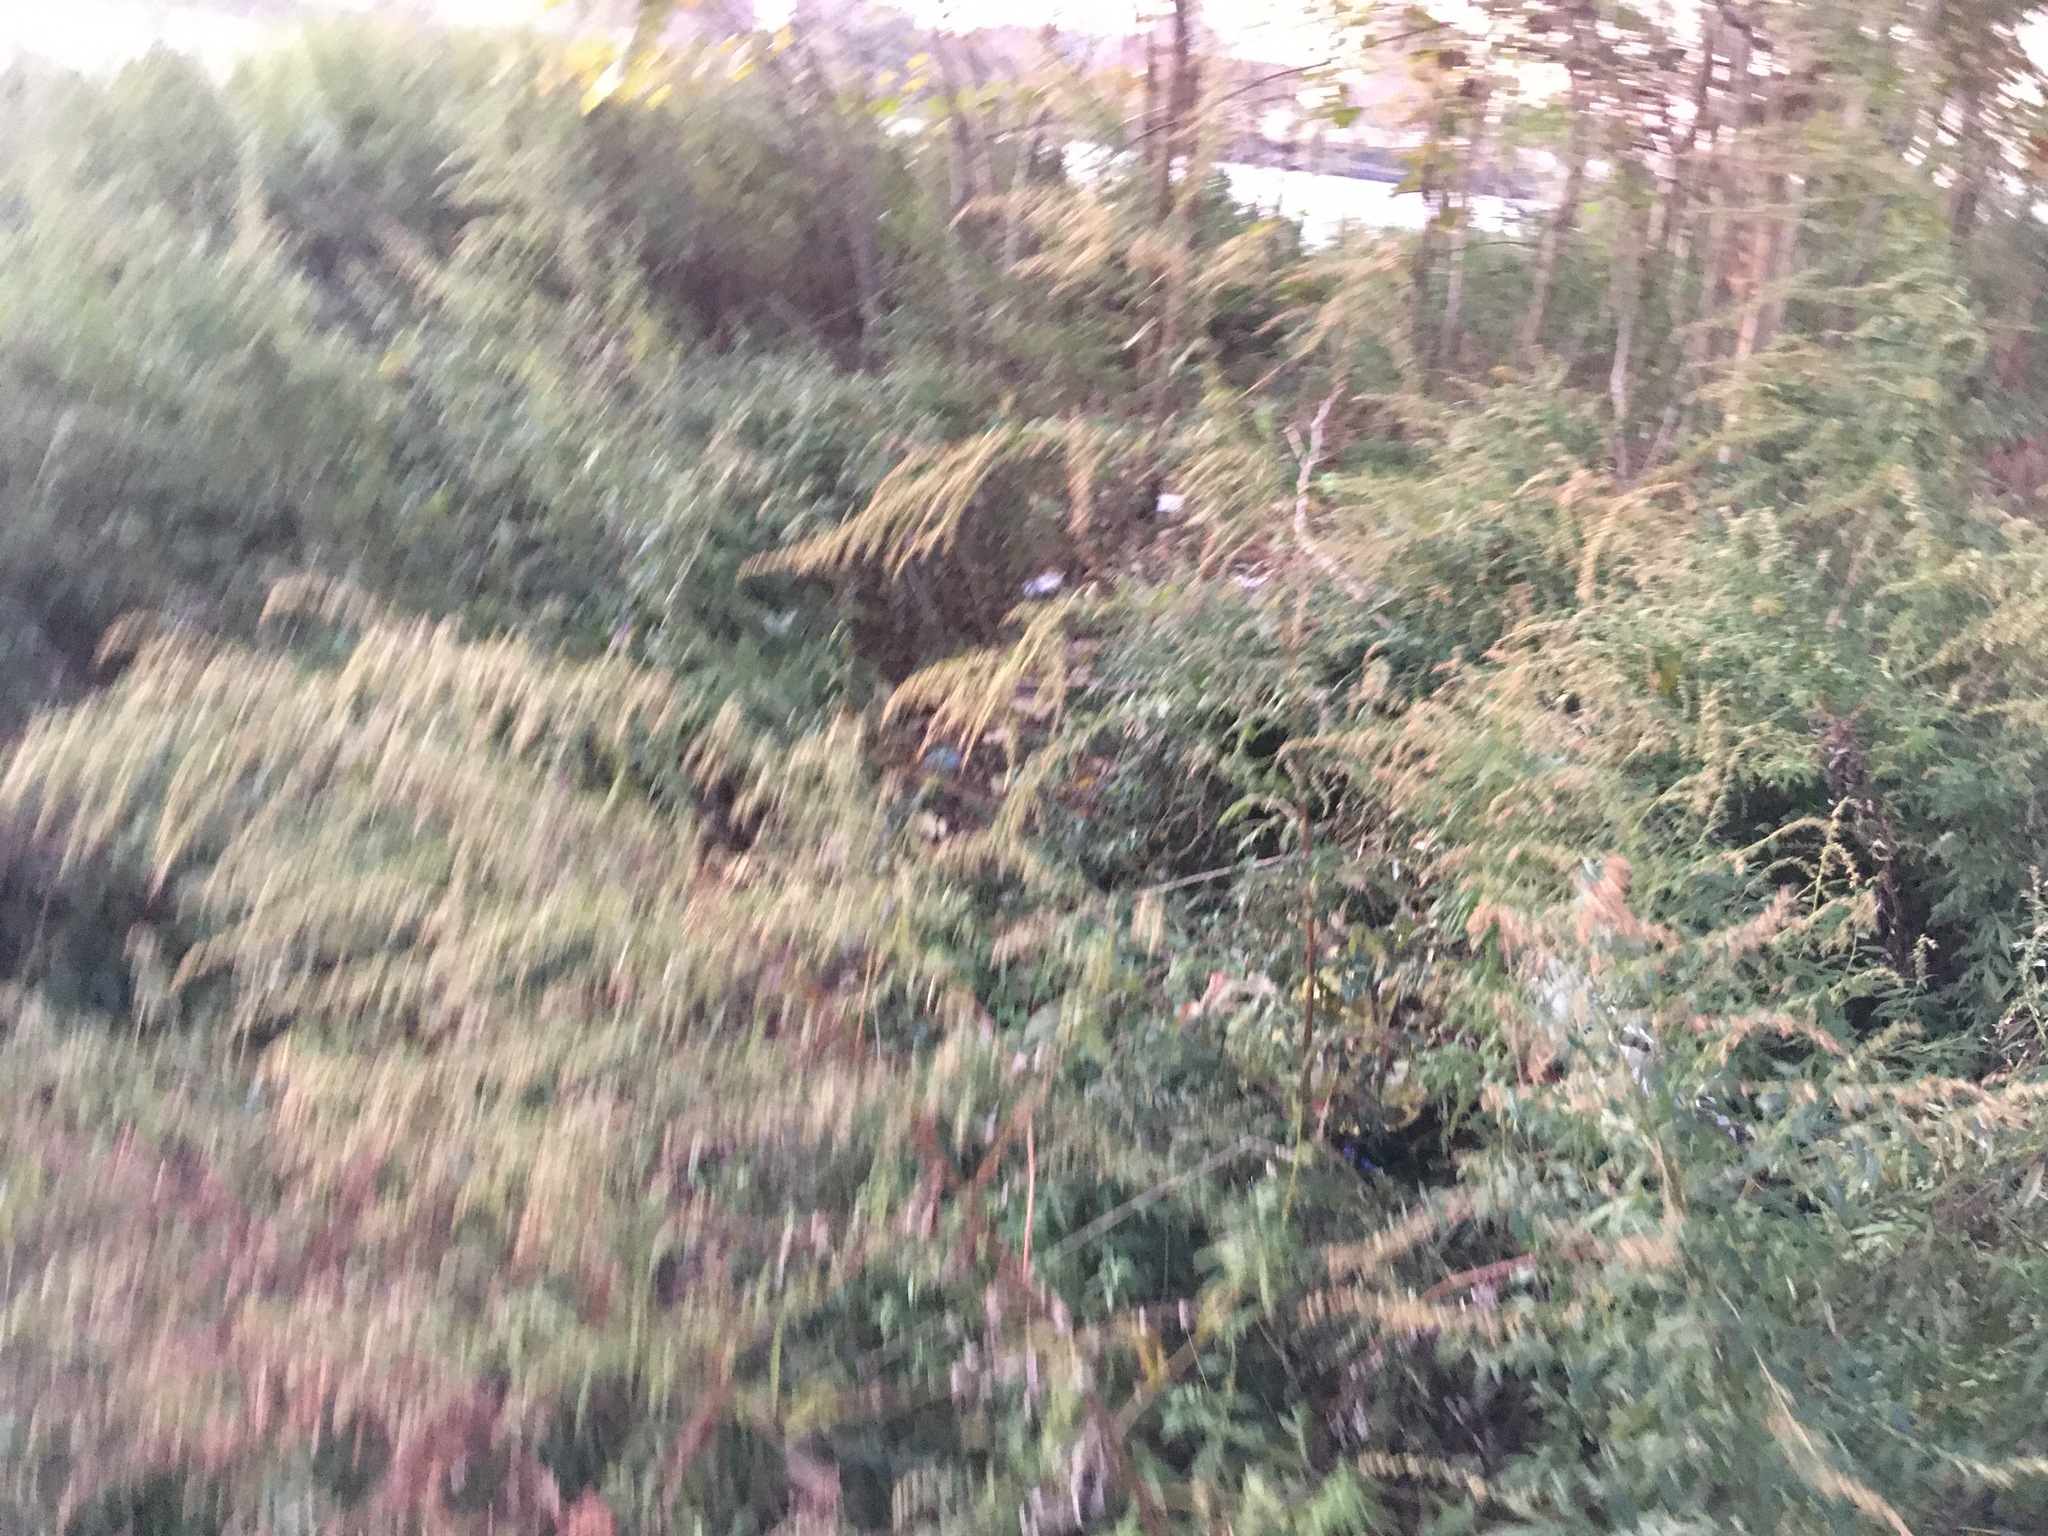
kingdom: Plantae
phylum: Tracheophyta
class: Magnoliopsida
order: Asterales
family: Asteraceae
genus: Artemisia
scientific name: Artemisia vulgaris
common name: Mugwort
